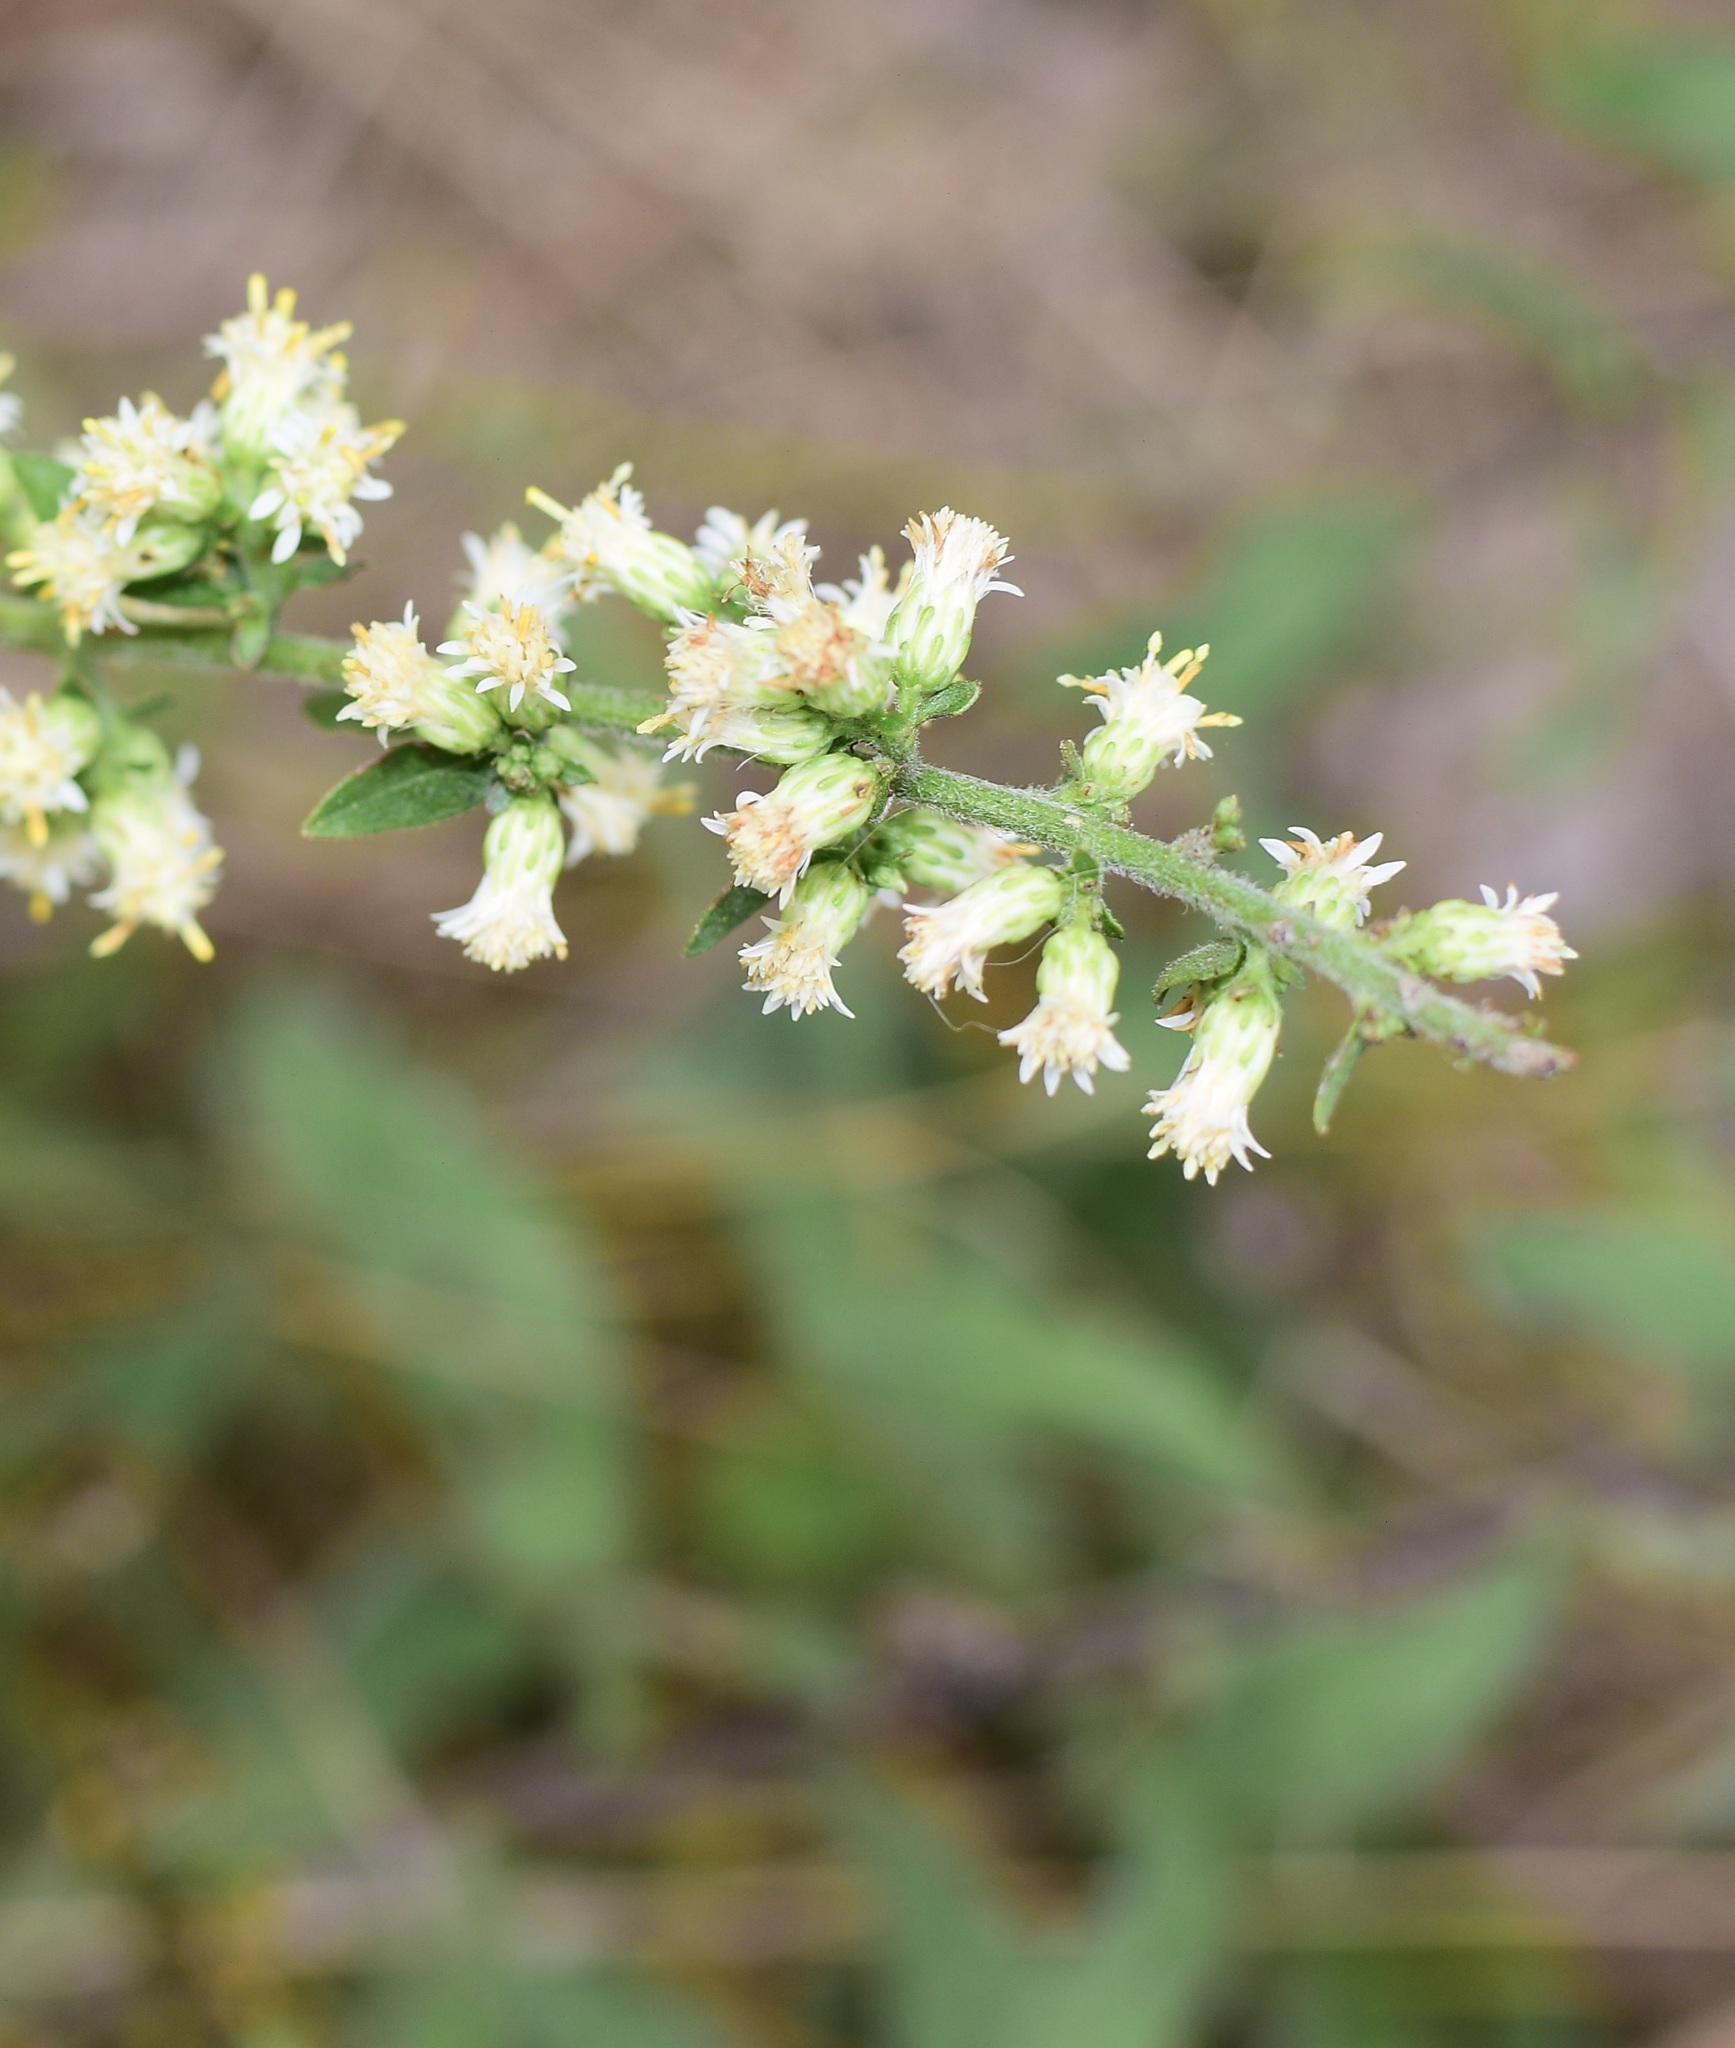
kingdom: Plantae
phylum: Tracheophyta
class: Magnoliopsida
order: Asterales
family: Asteraceae
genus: Solidago
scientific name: Solidago bicolor
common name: Silverrod
